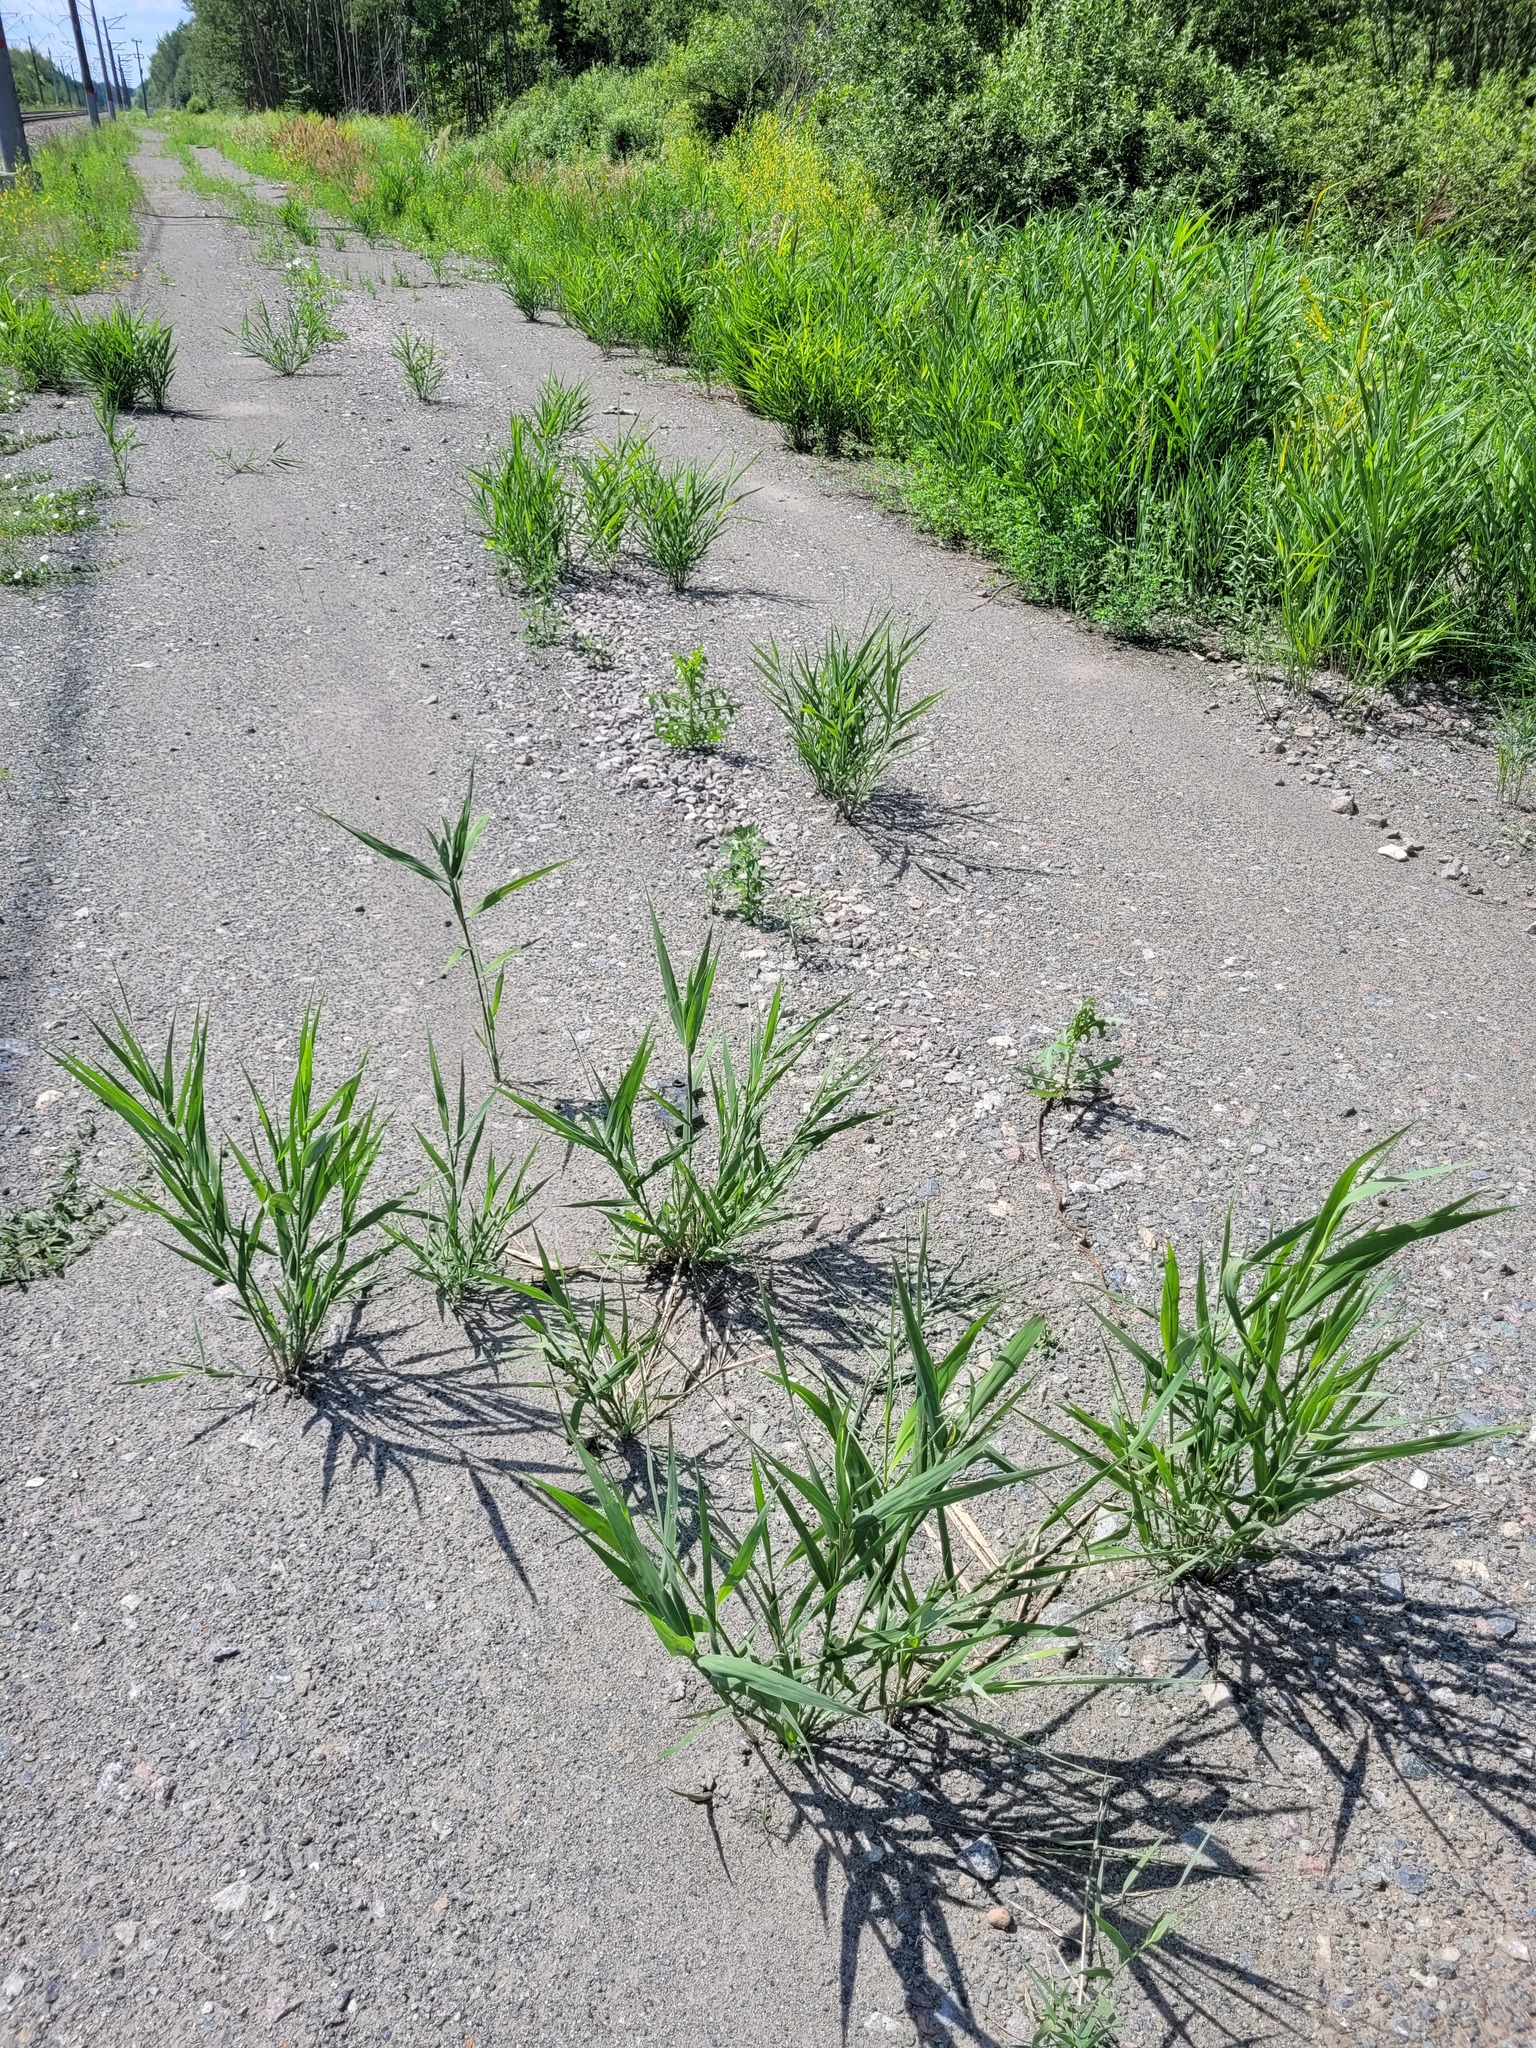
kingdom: Plantae
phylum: Tracheophyta
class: Liliopsida
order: Poales
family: Poaceae
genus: Phragmites
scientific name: Phragmites australis
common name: Common reed
